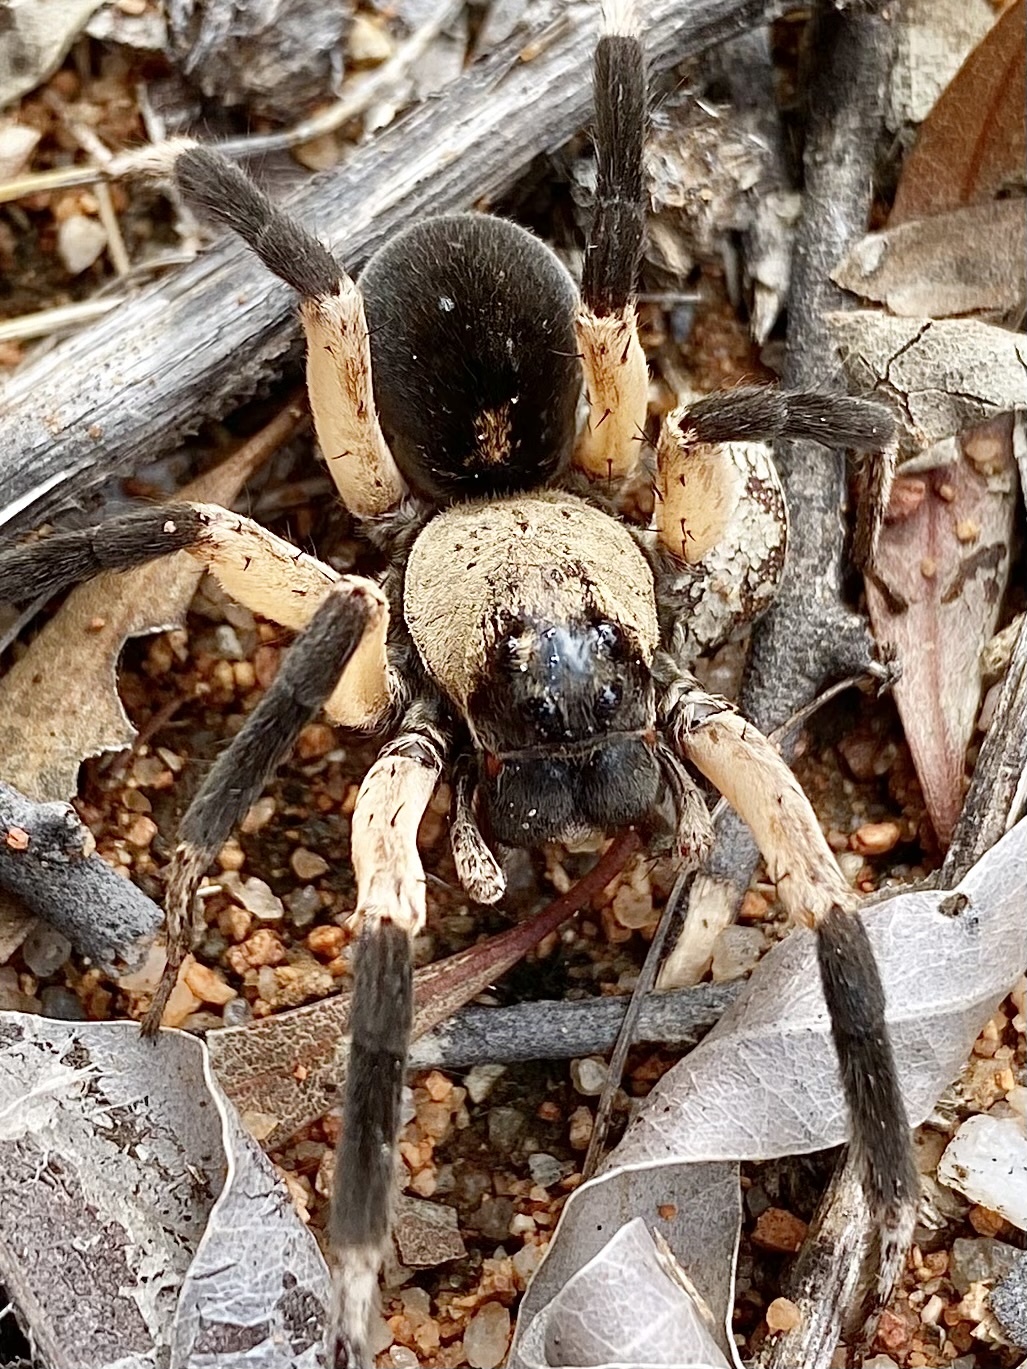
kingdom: Animalia
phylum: Arthropoda
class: Arachnida
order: Araneae
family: Lycosidae
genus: Hoggicosa
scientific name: Hoggicosa storri
